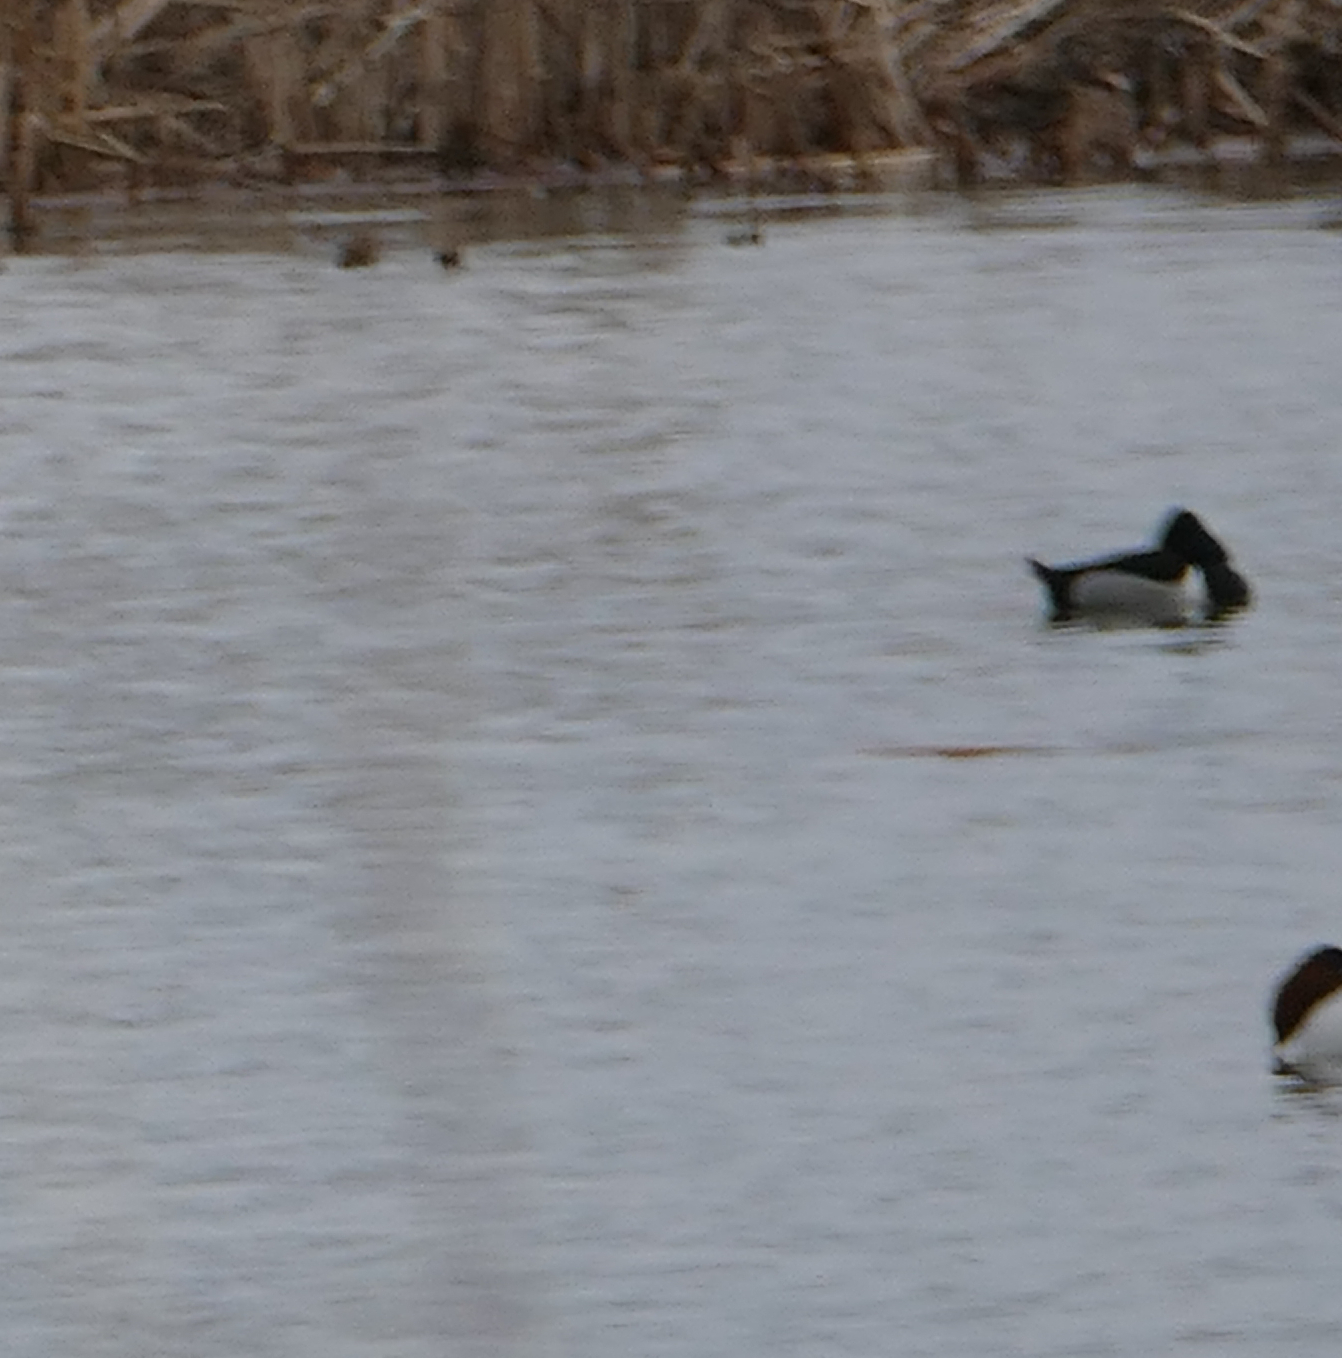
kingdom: Animalia
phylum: Chordata
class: Aves
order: Anseriformes
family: Anatidae
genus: Aythya
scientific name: Aythya collaris
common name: Ring-necked duck
